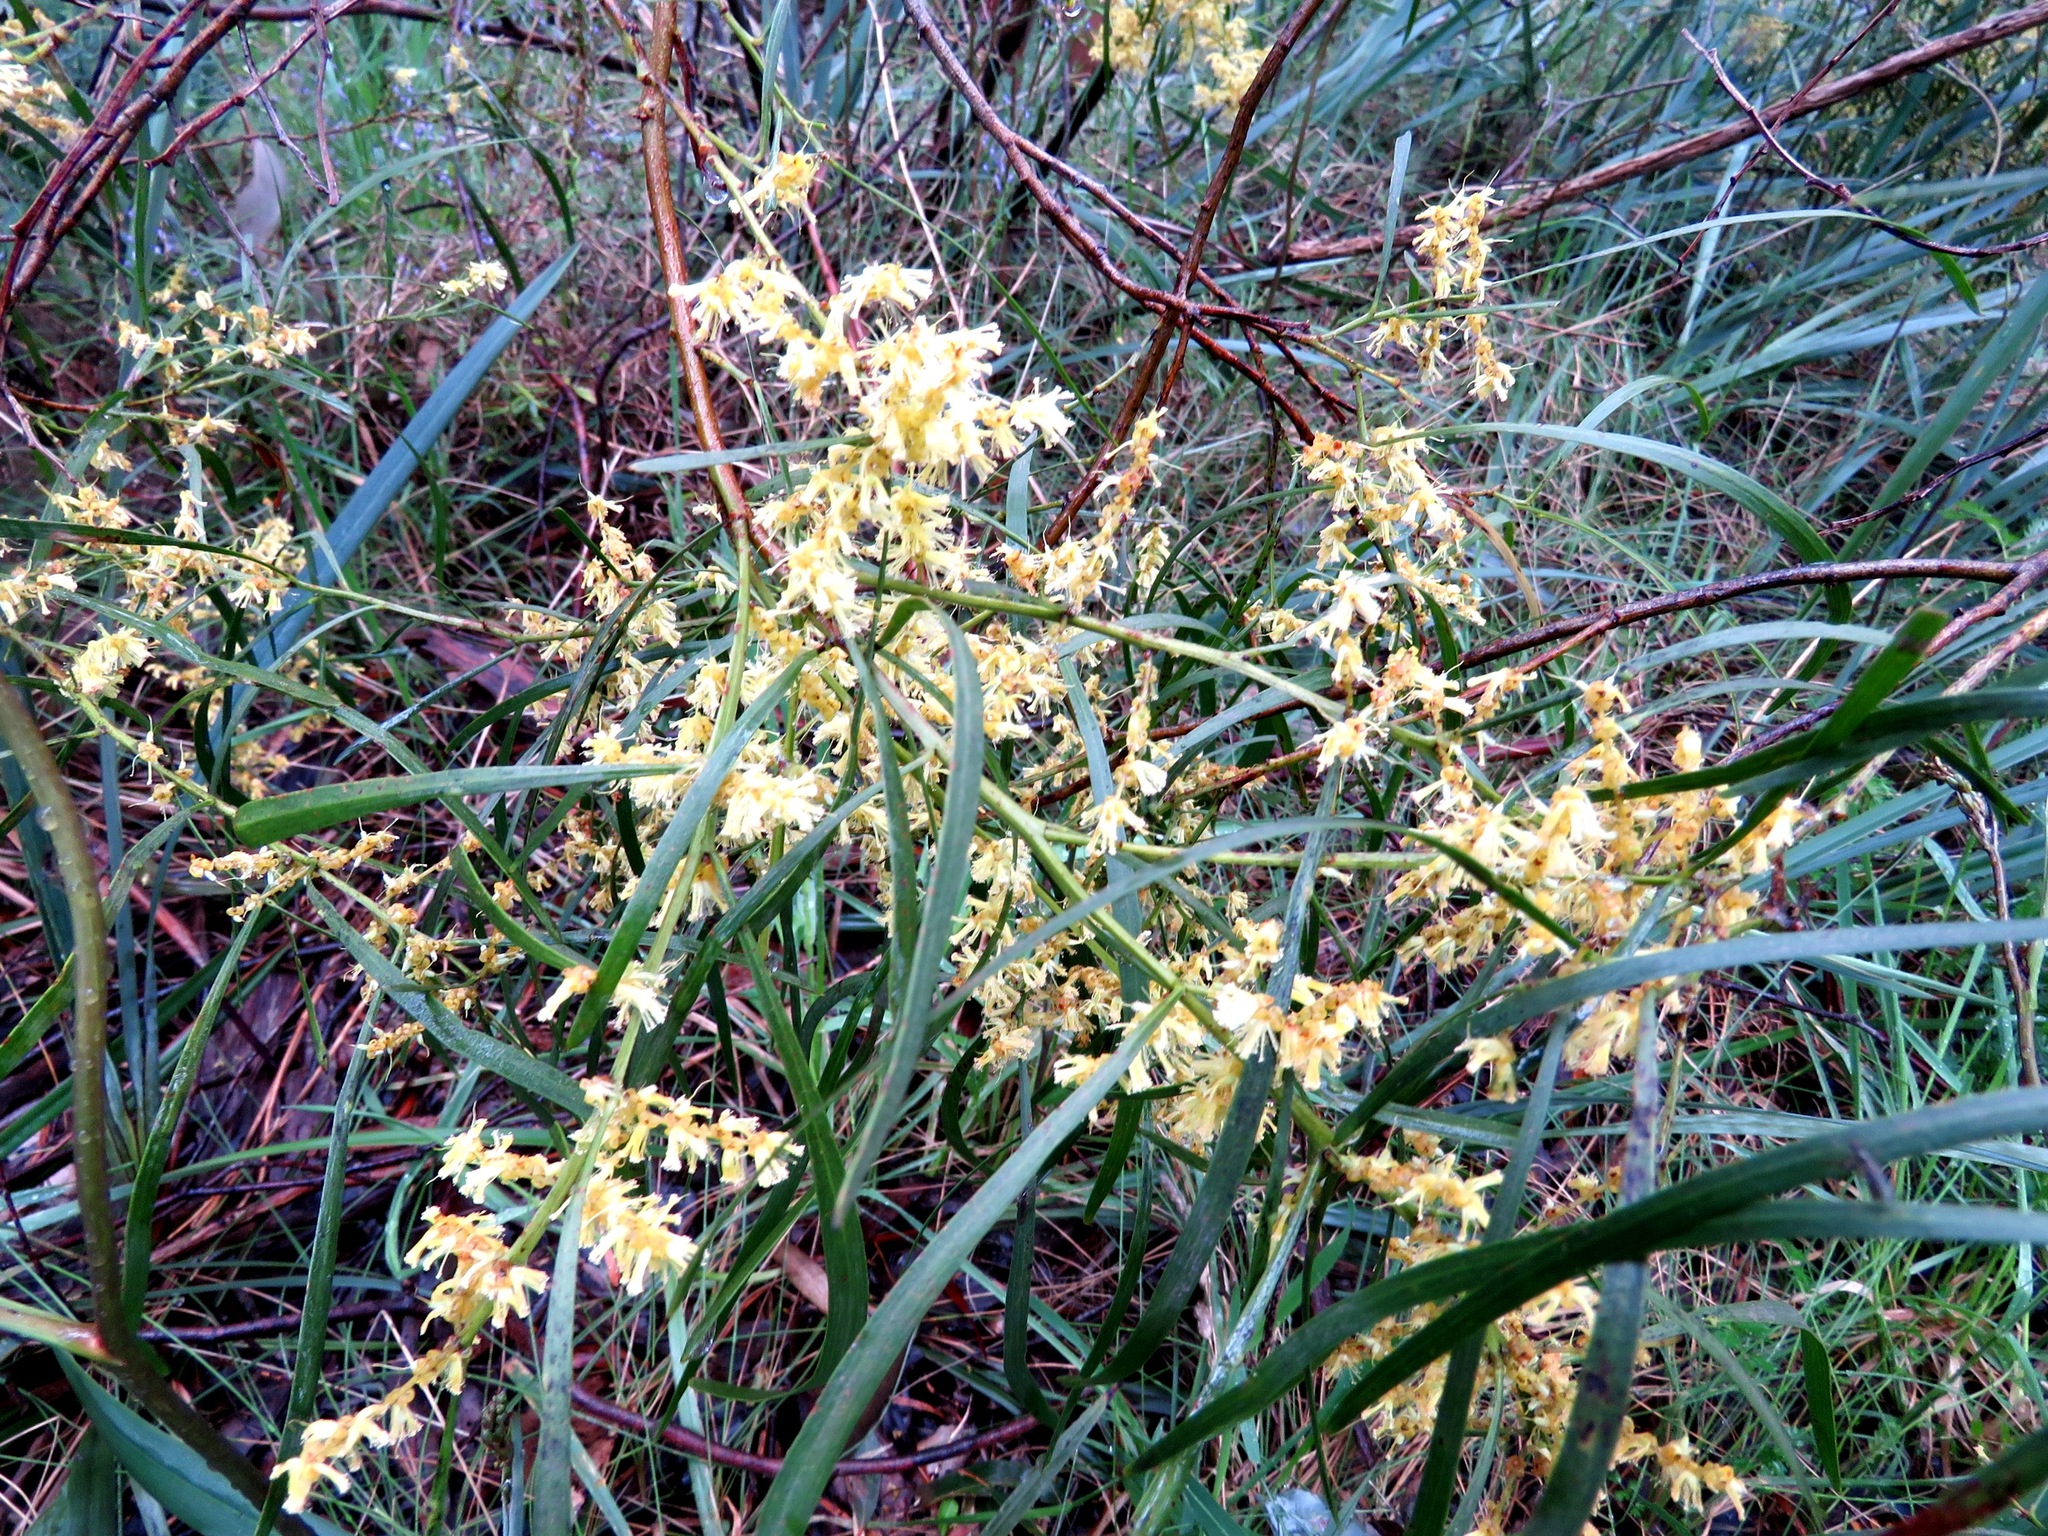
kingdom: Plantae
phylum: Tracheophyta
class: Magnoliopsida
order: Fabales
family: Fabaceae
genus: Acacia
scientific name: Acacia mucronata
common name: Variable sallow wattle
